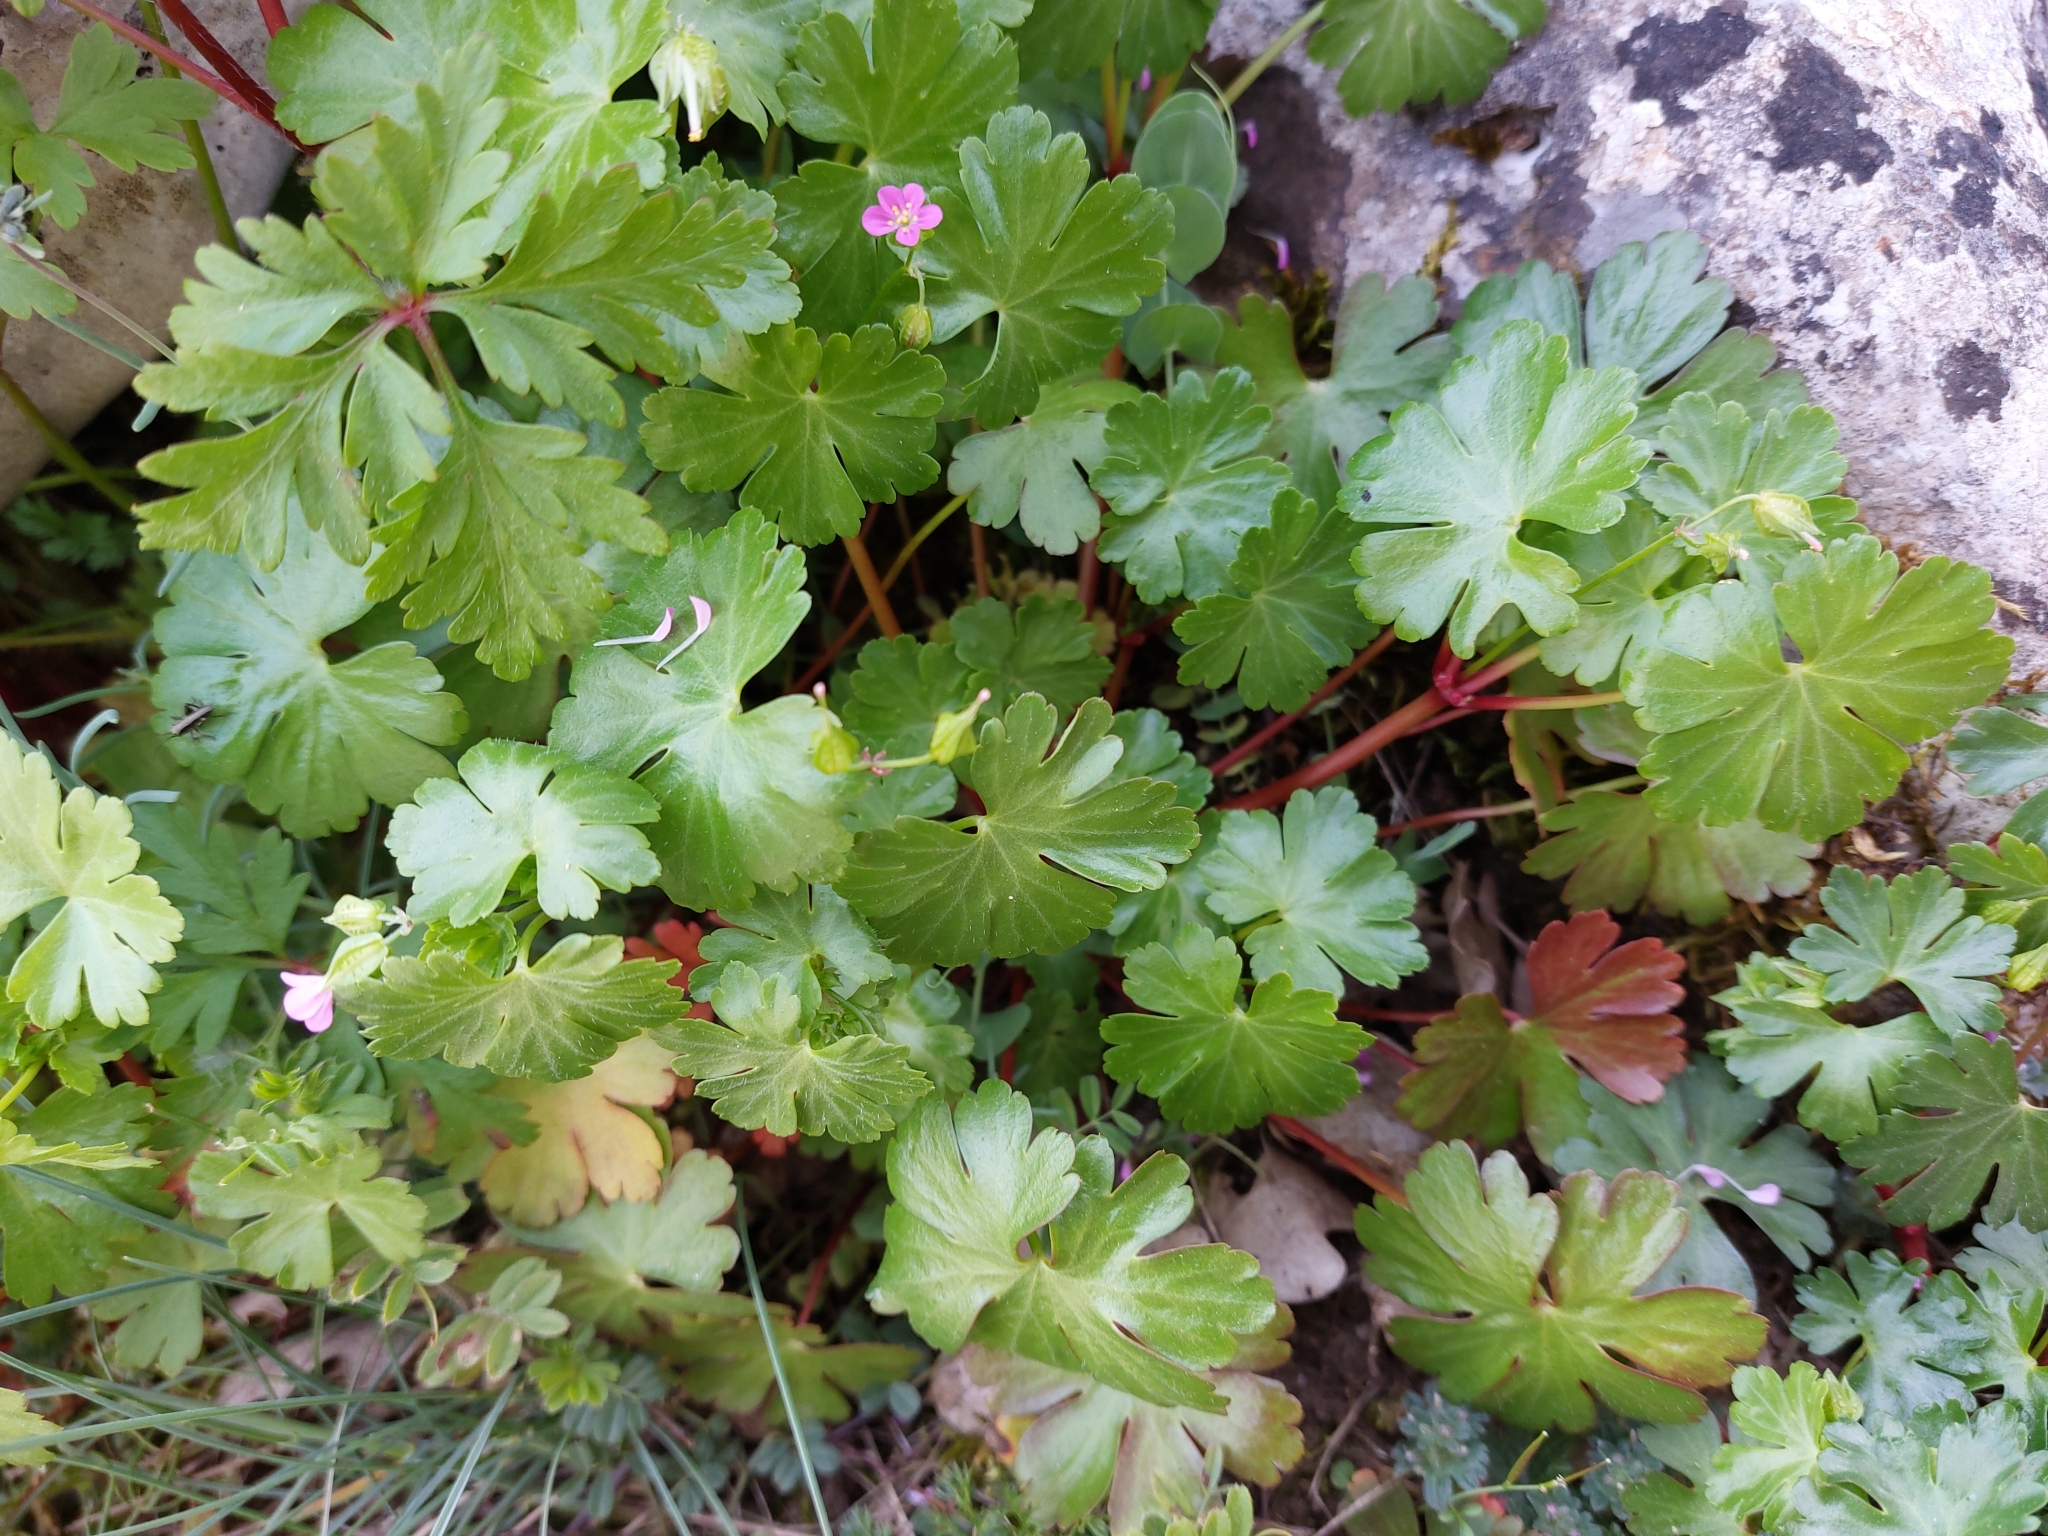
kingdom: Plantae
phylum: Tracheophyta
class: Magnoliopsida
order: Geraniales
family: Geraniaceae
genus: Geranium
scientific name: Geranium lucidum
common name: Shining crane's-bill
